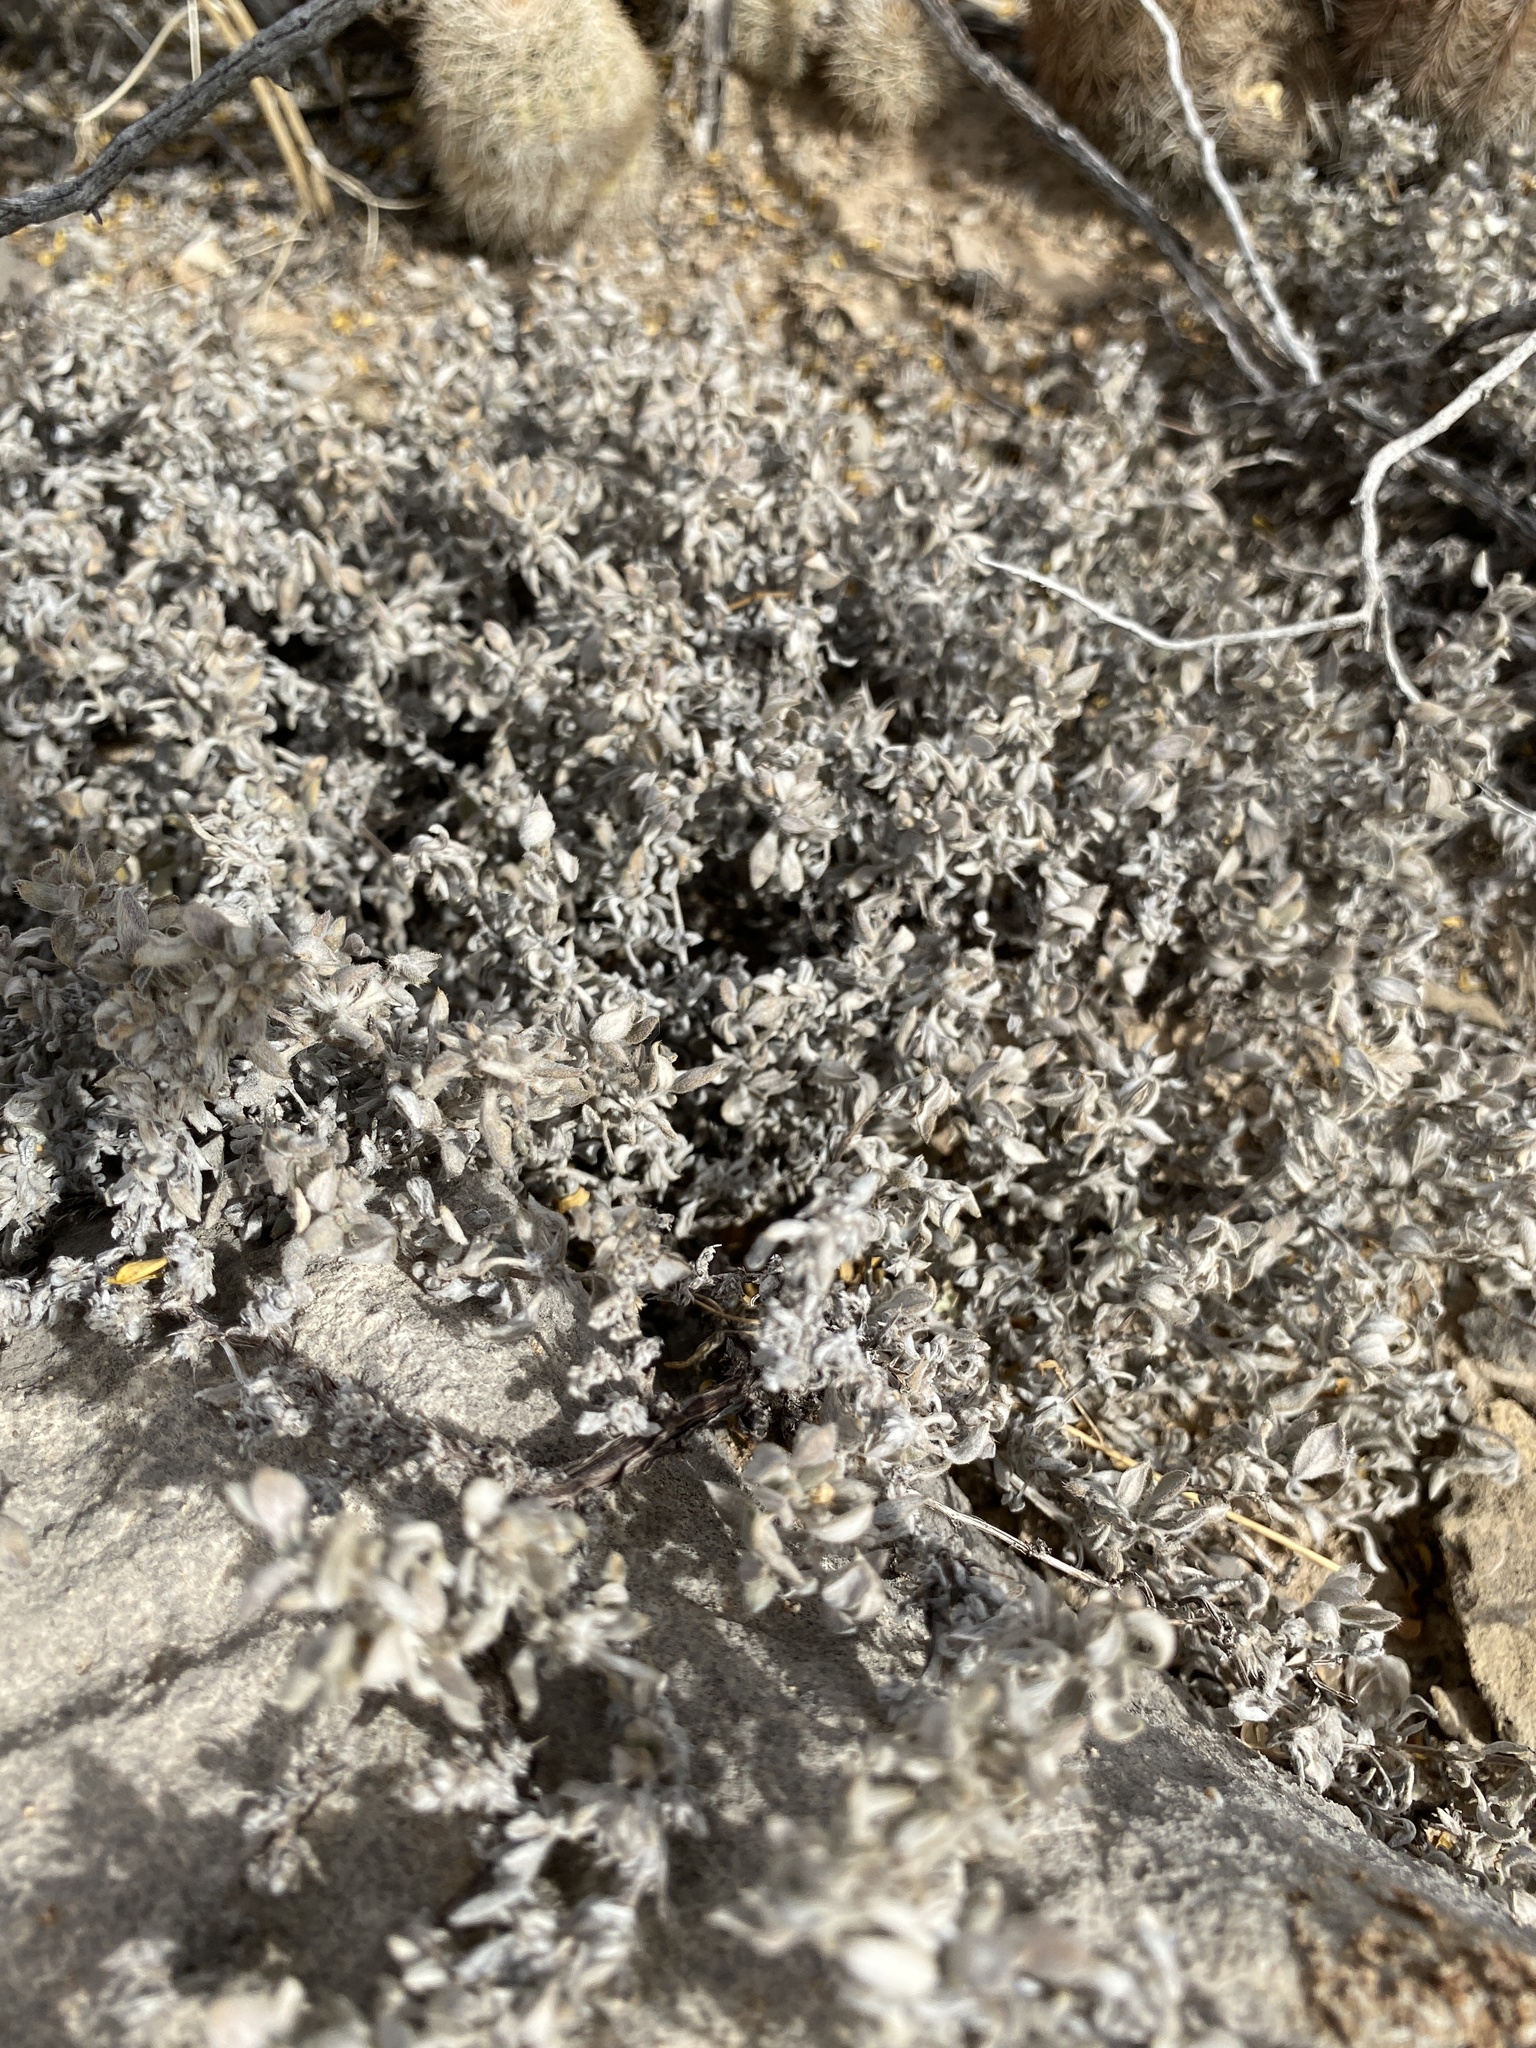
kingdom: Plantae
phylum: Tracheophyta
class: Magnoliopsida
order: Boraginales
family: Ehretiaceae
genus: Tiquilia
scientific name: Tiquilia canescens
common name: Hairy tiquilia
